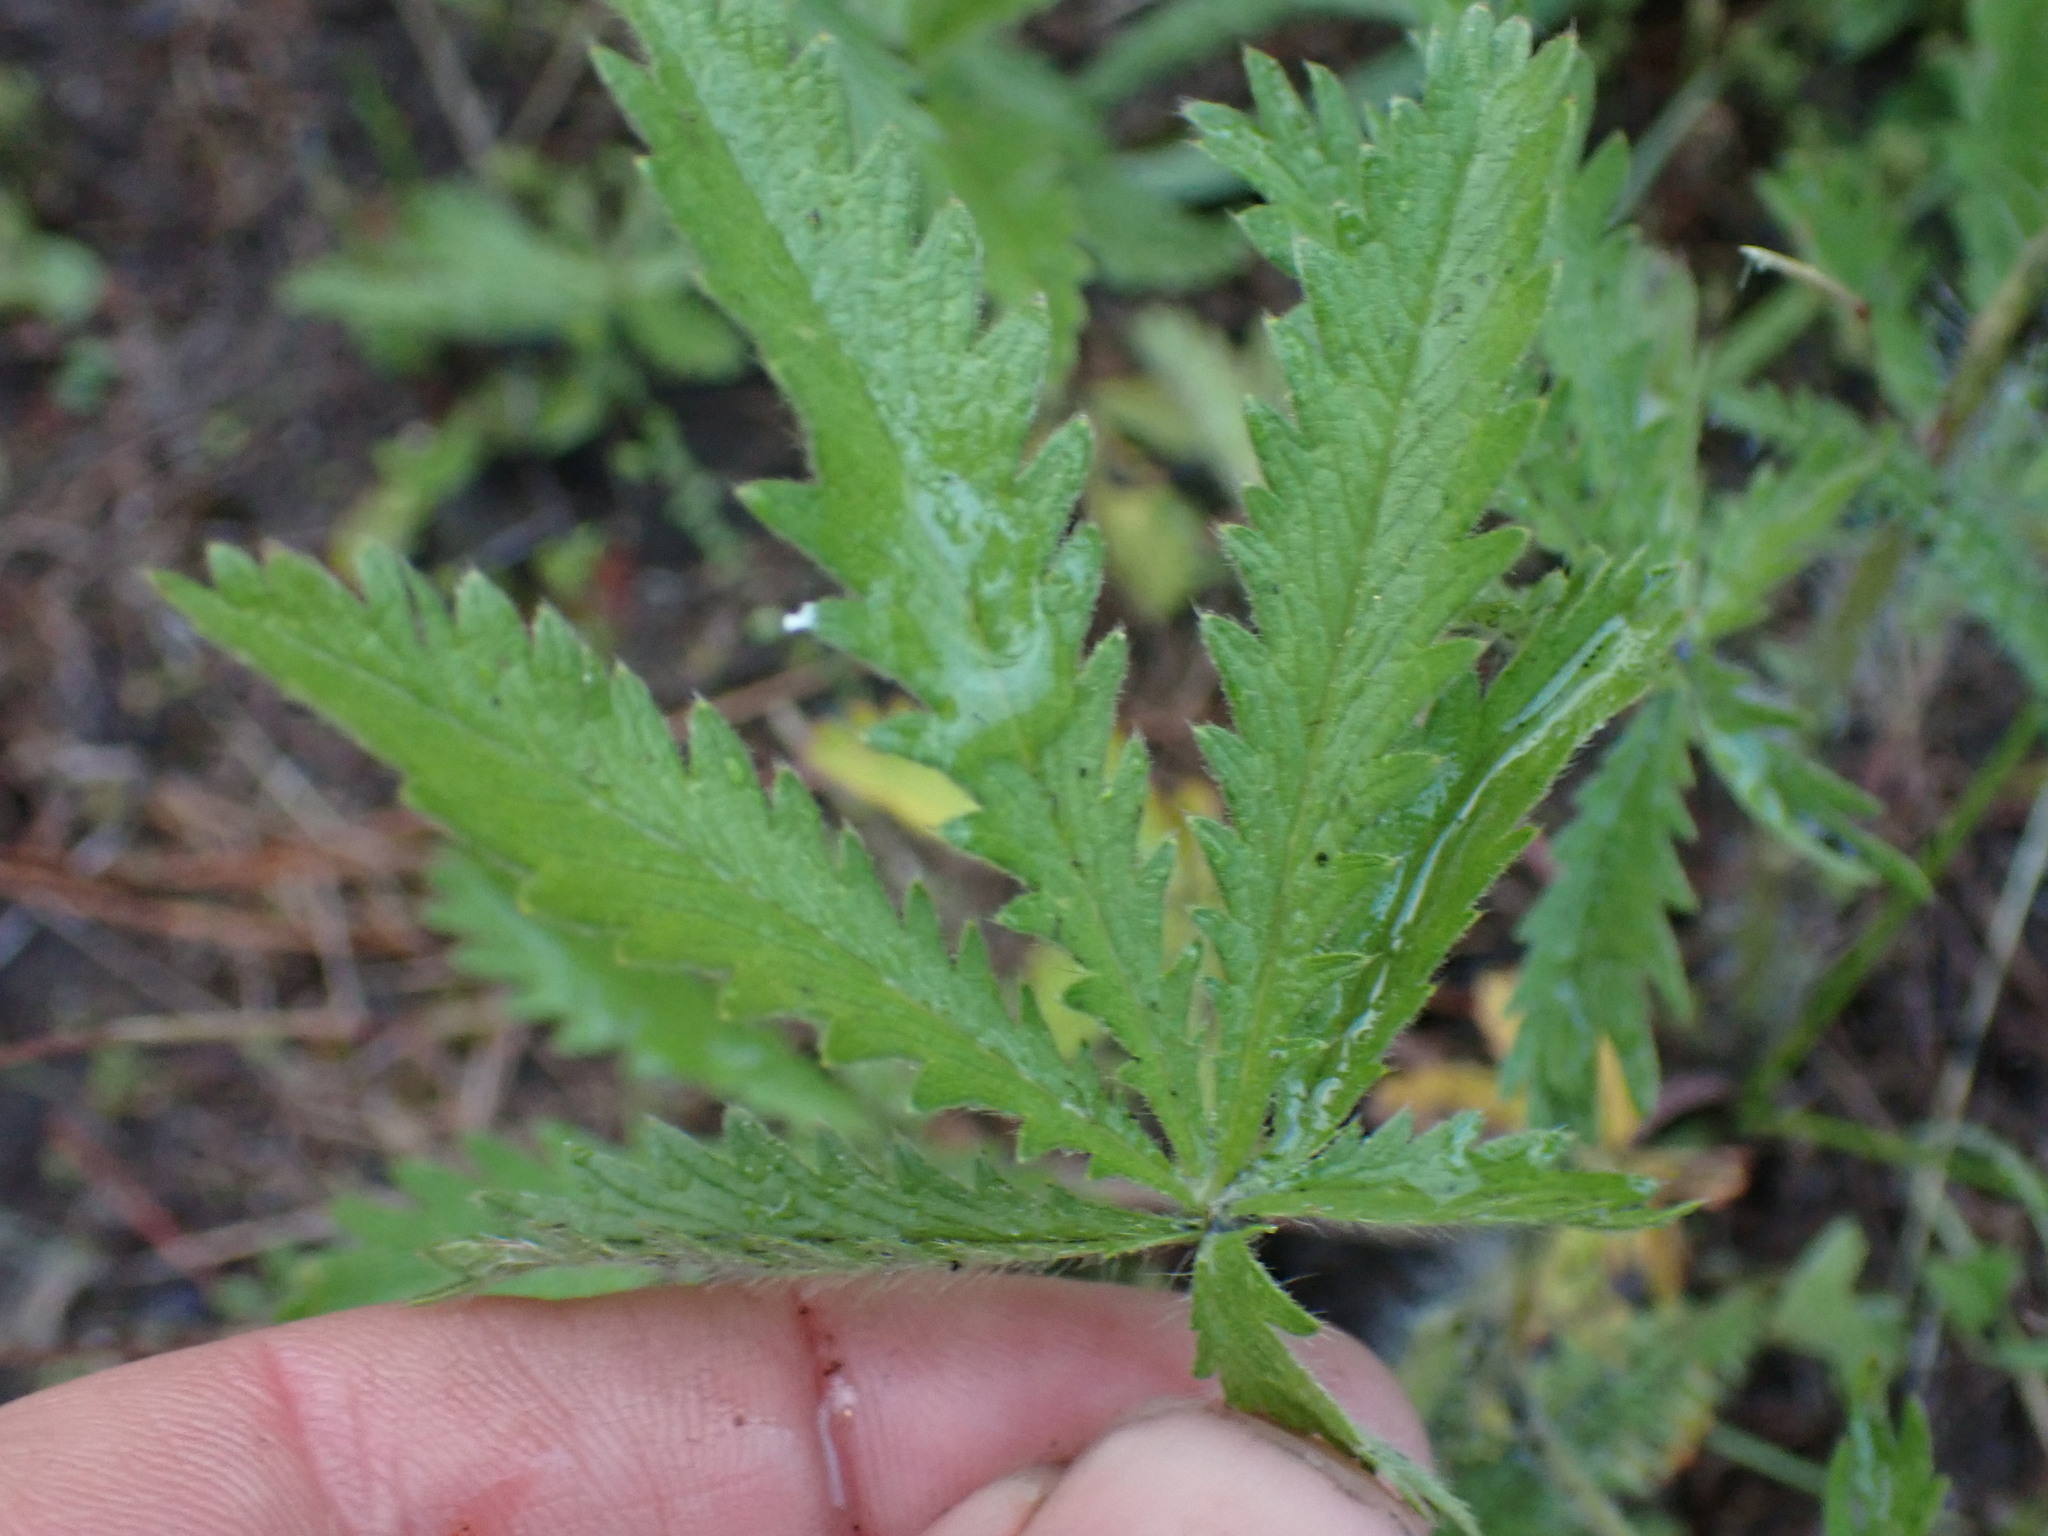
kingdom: Plantae
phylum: Tracheophyta
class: Magnoliopsida
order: Rosales
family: Rosaceae
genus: Potentilla
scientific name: Potentilla recta
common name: Sulphur cinquefoil
